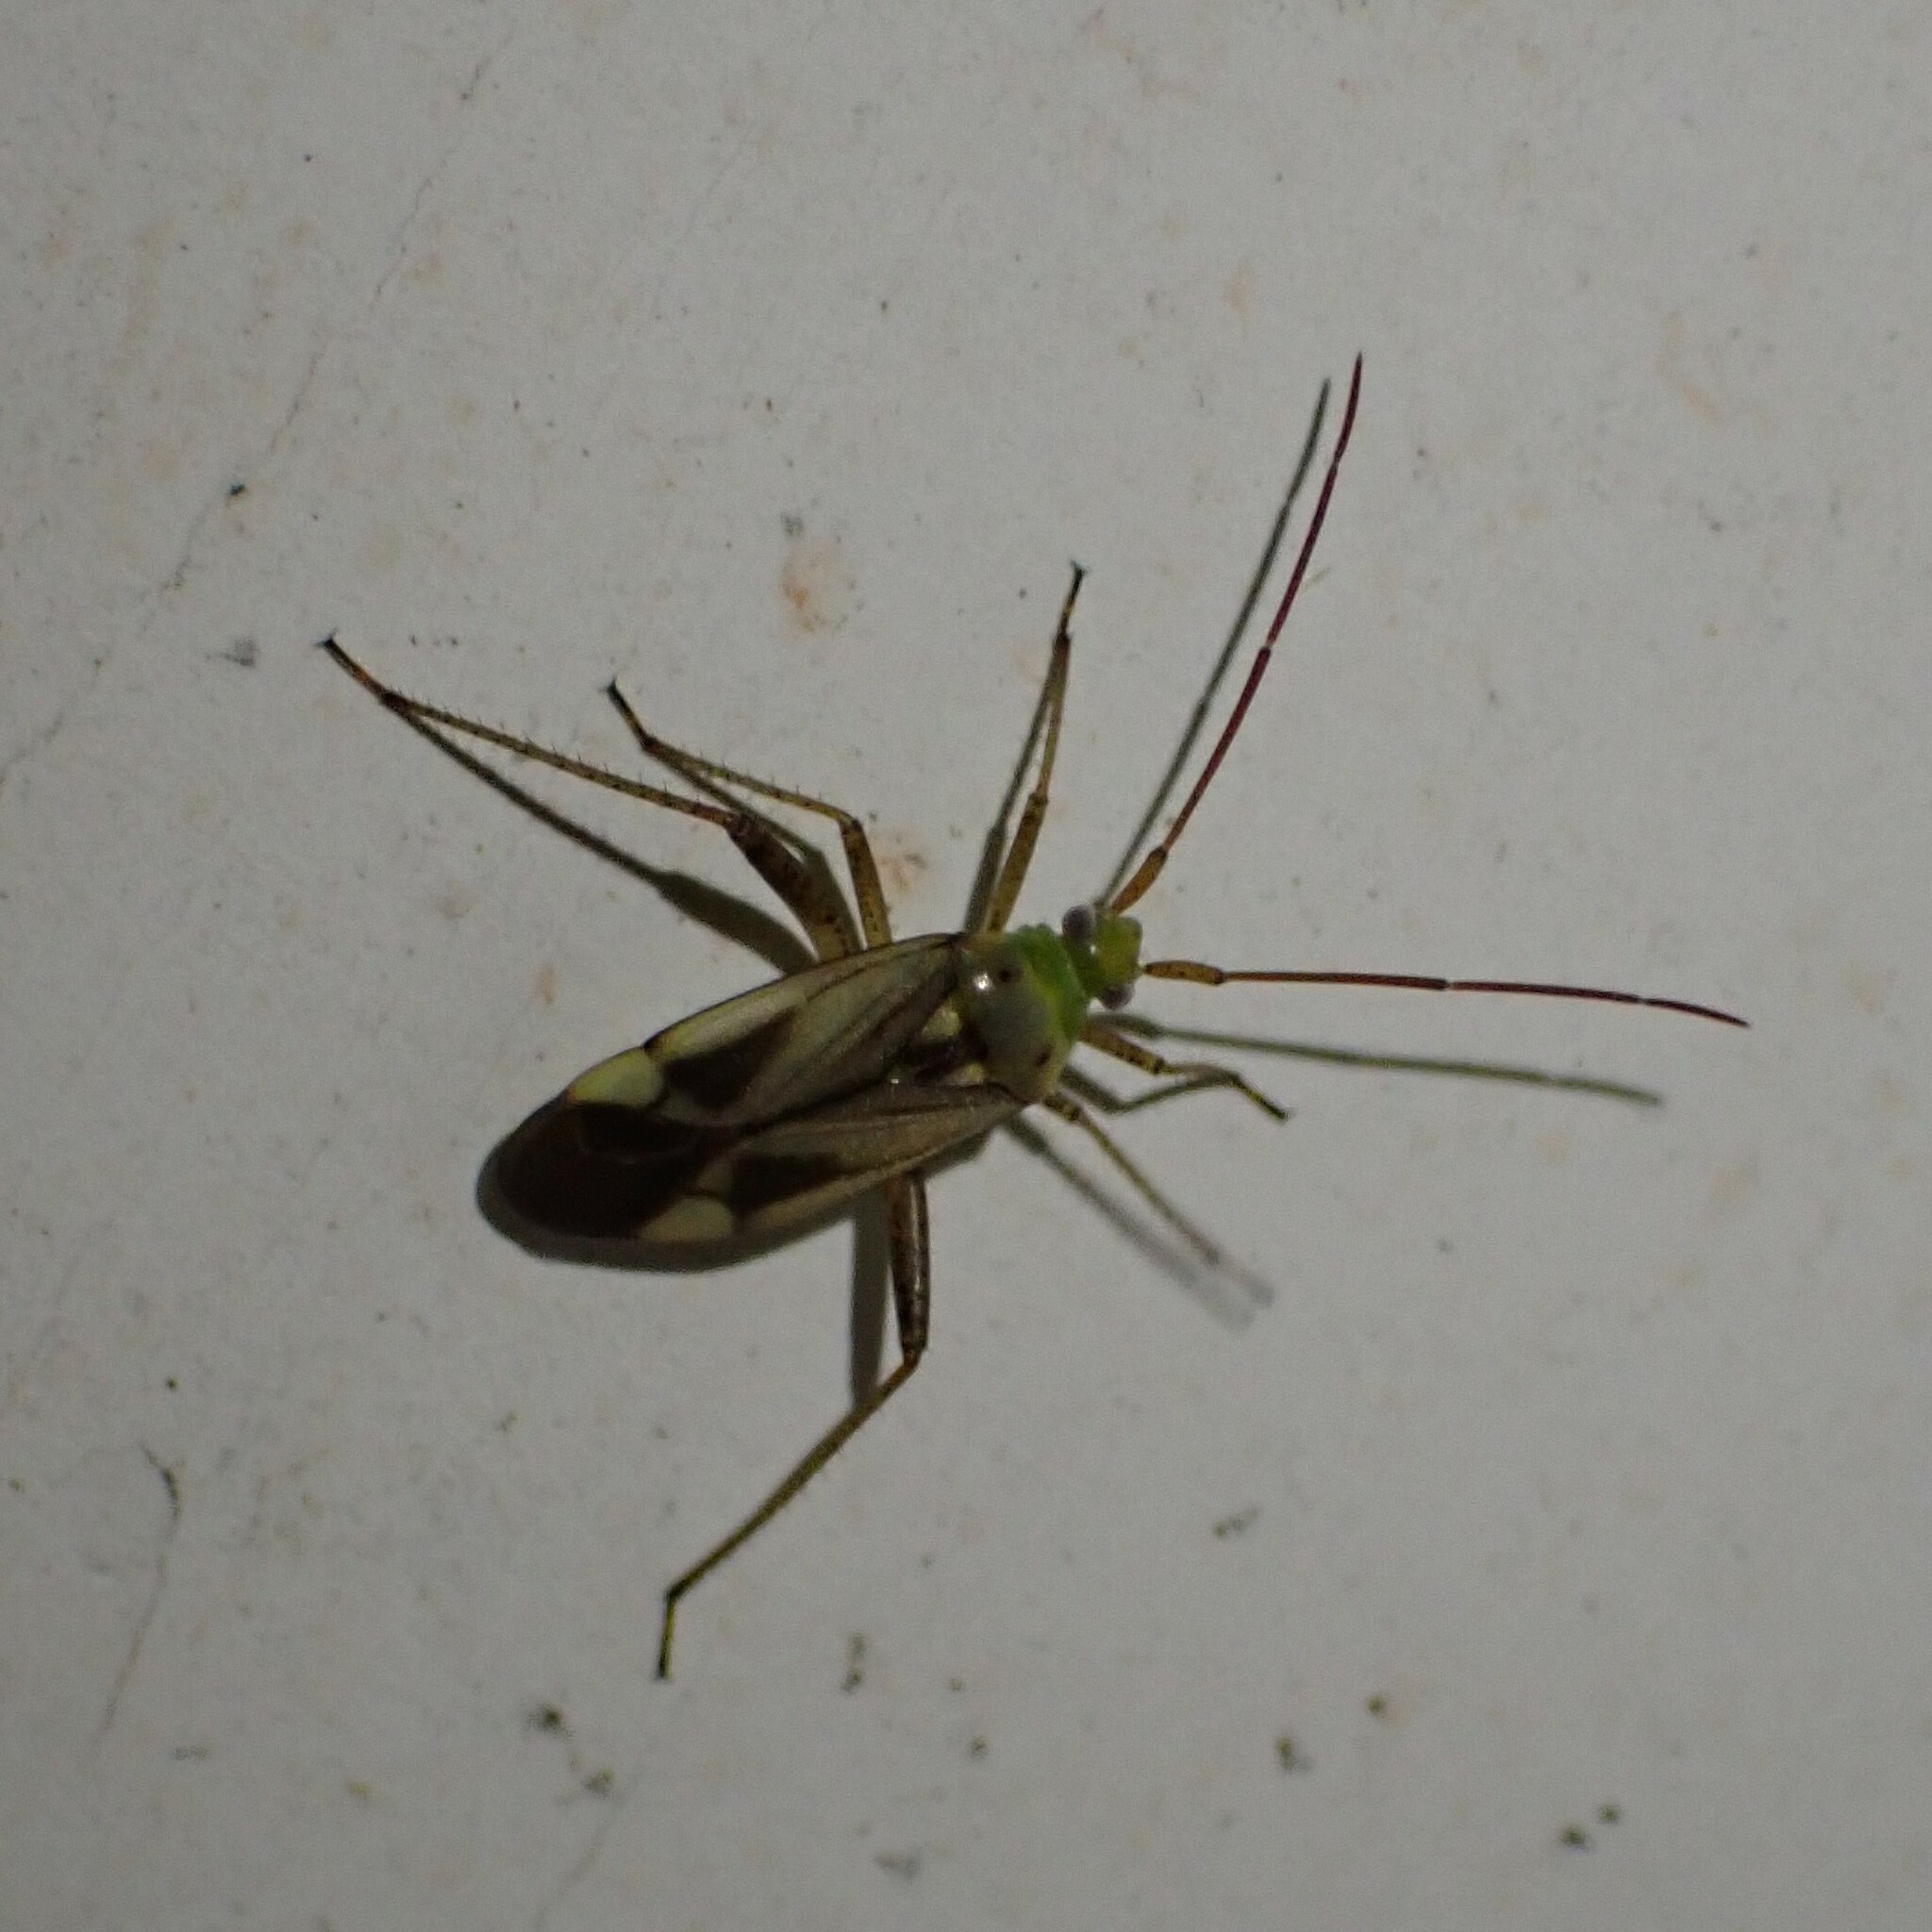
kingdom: Animalia
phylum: Arthropoda
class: Insecta
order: Hemiptera
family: Miridae
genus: Adelphocoris
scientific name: Adelphocoris lineolatus
